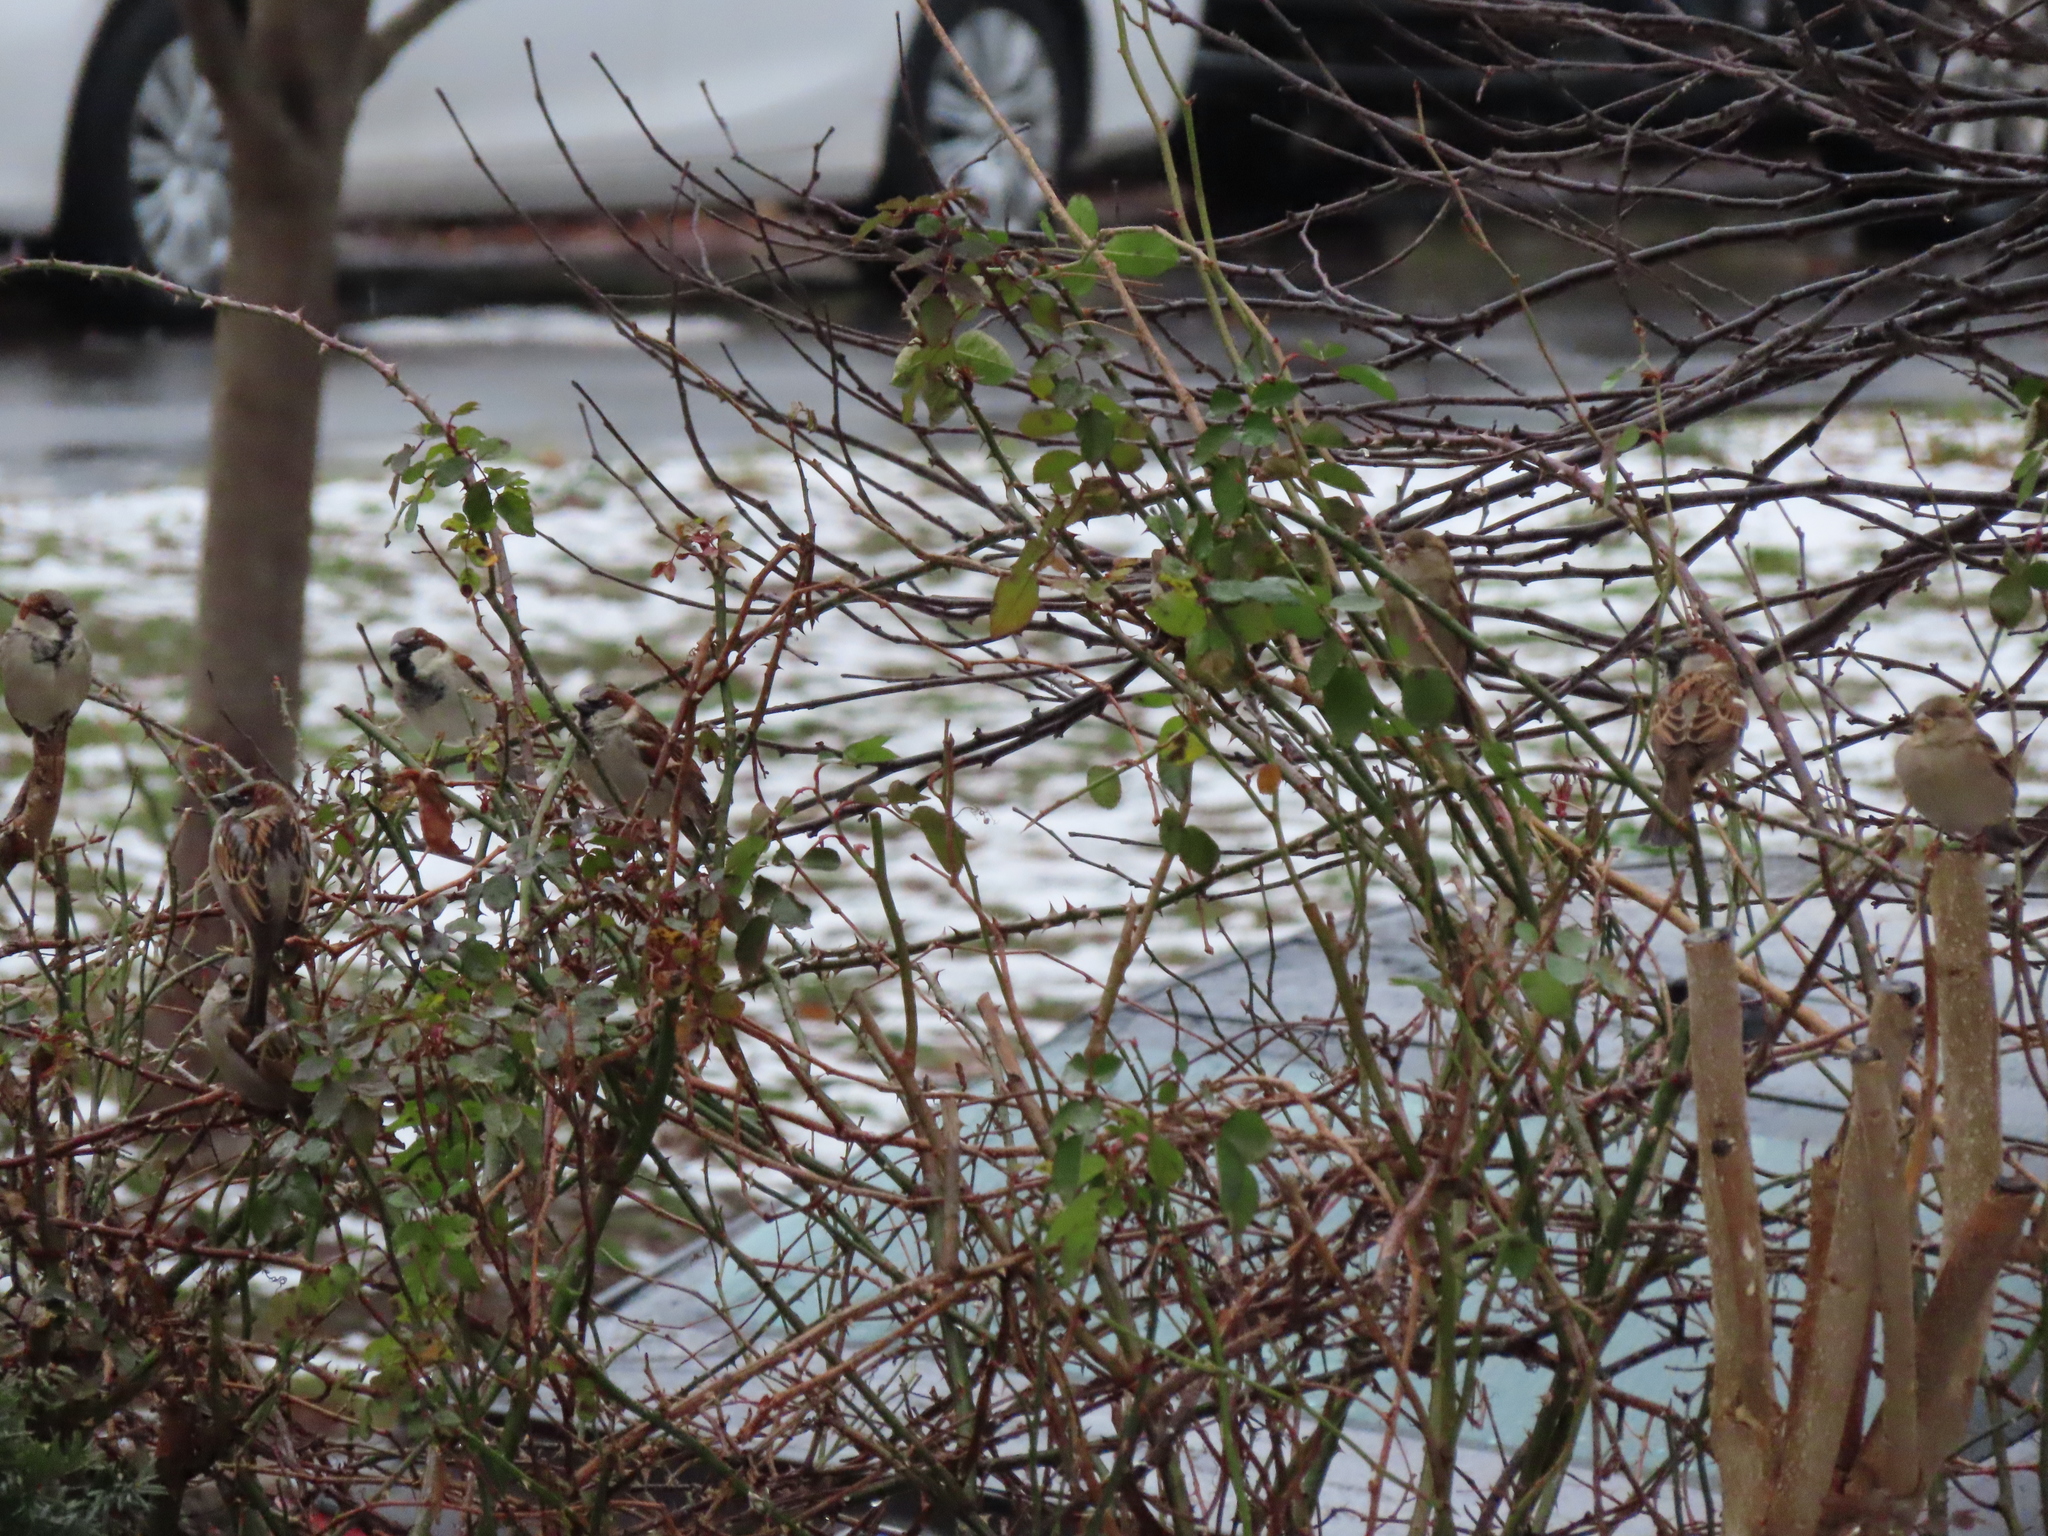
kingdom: Animalia
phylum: Chordata
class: Aves
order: Passeriformes
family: Passeridae
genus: Passer
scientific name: Passer domesticus
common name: House sparrow
